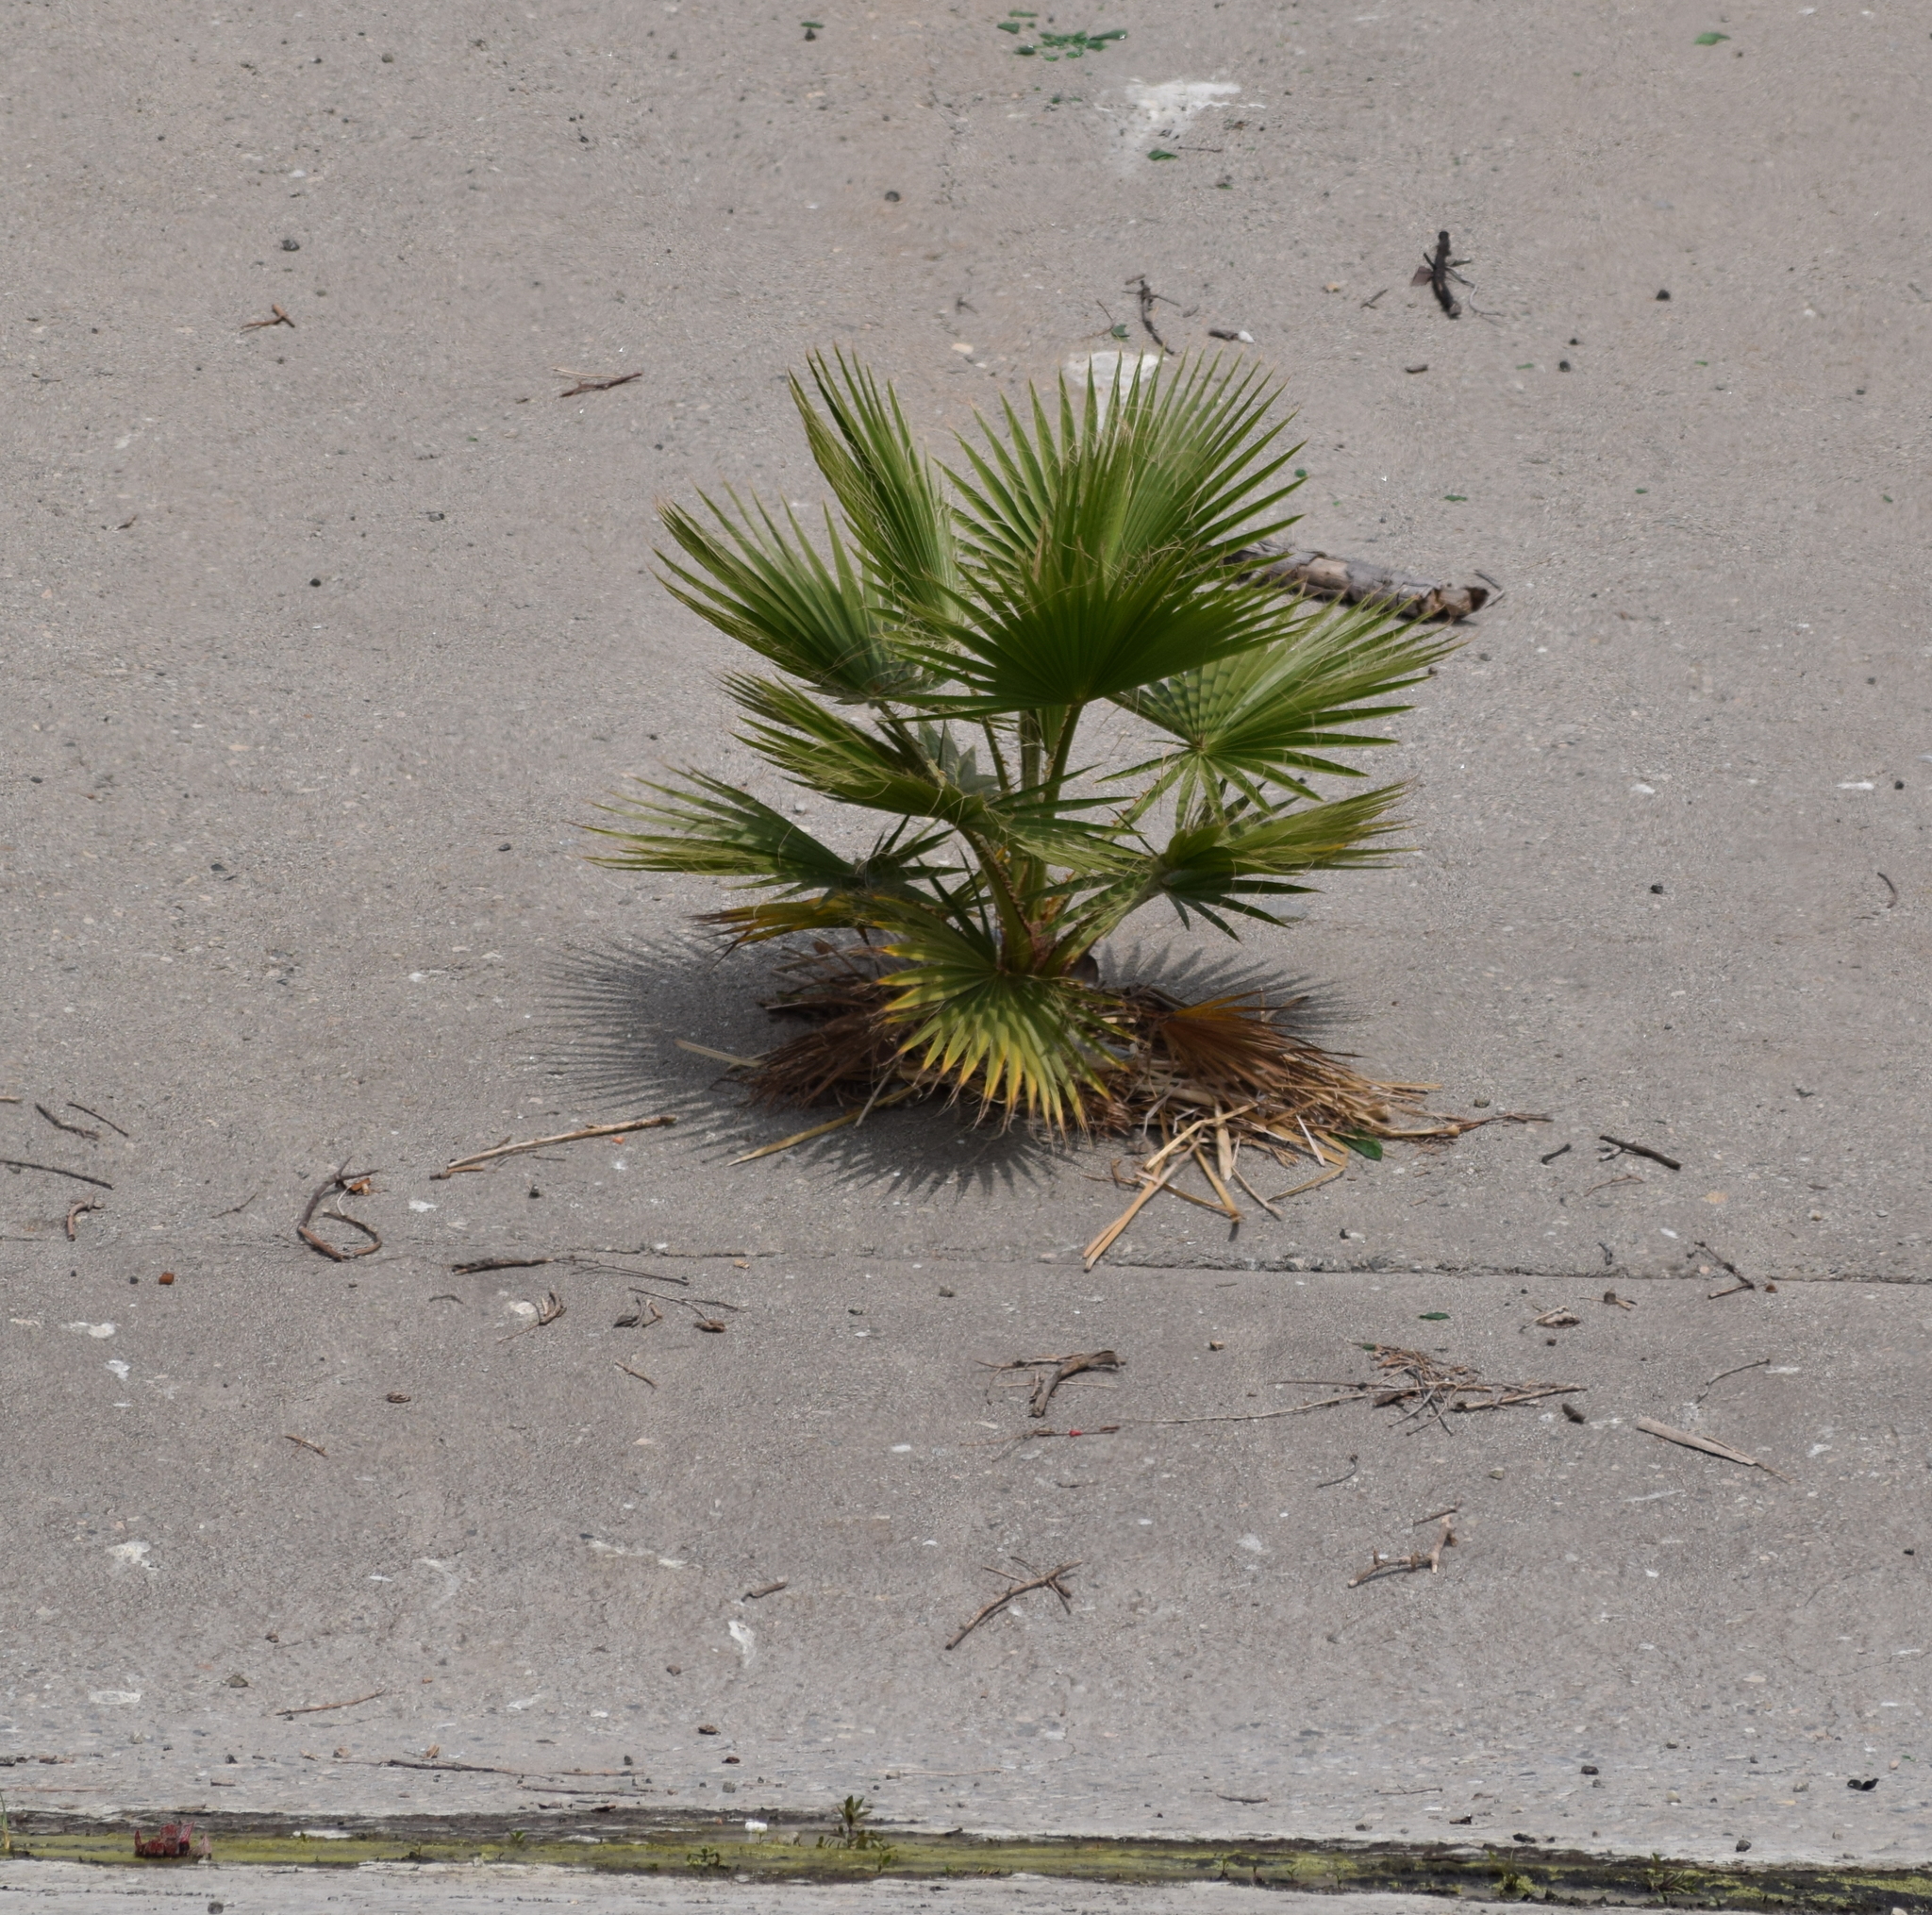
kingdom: Plantae
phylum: Tracheophyta
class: Liliopsida
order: Arecales
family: Arecaceae
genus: Washingtonia
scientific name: Washingtonia robusta
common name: Mexican fan palm
